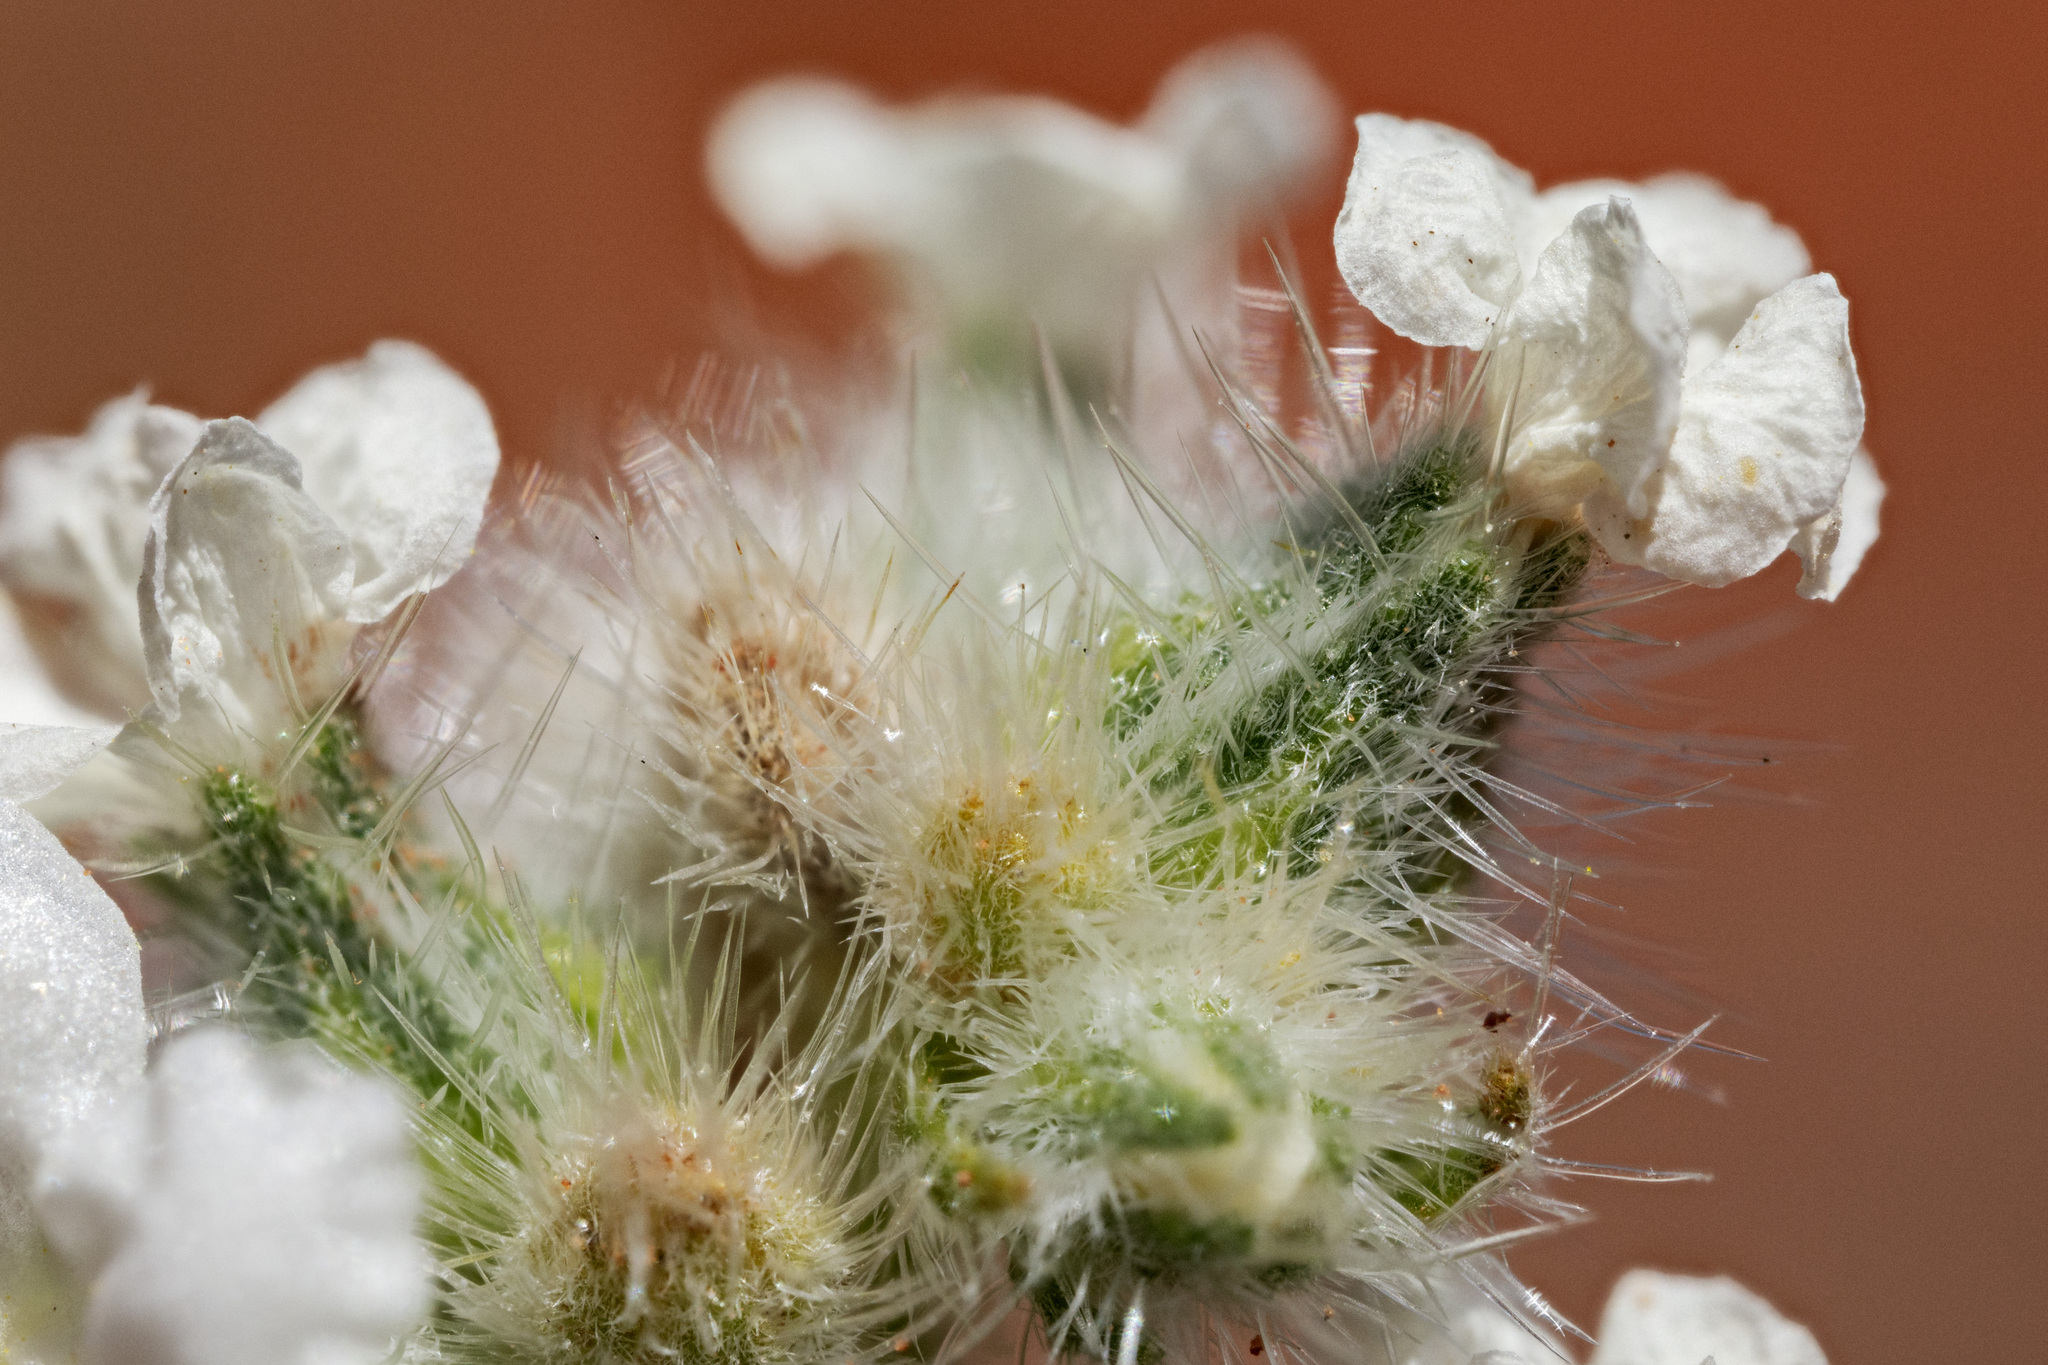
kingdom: Plantae
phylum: Tracheophyta
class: Magnoliopsida
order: Boraginales
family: Boraginaceae
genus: Oreocarya
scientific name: Oreocarya glomerata
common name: Macoun's cryptantha
